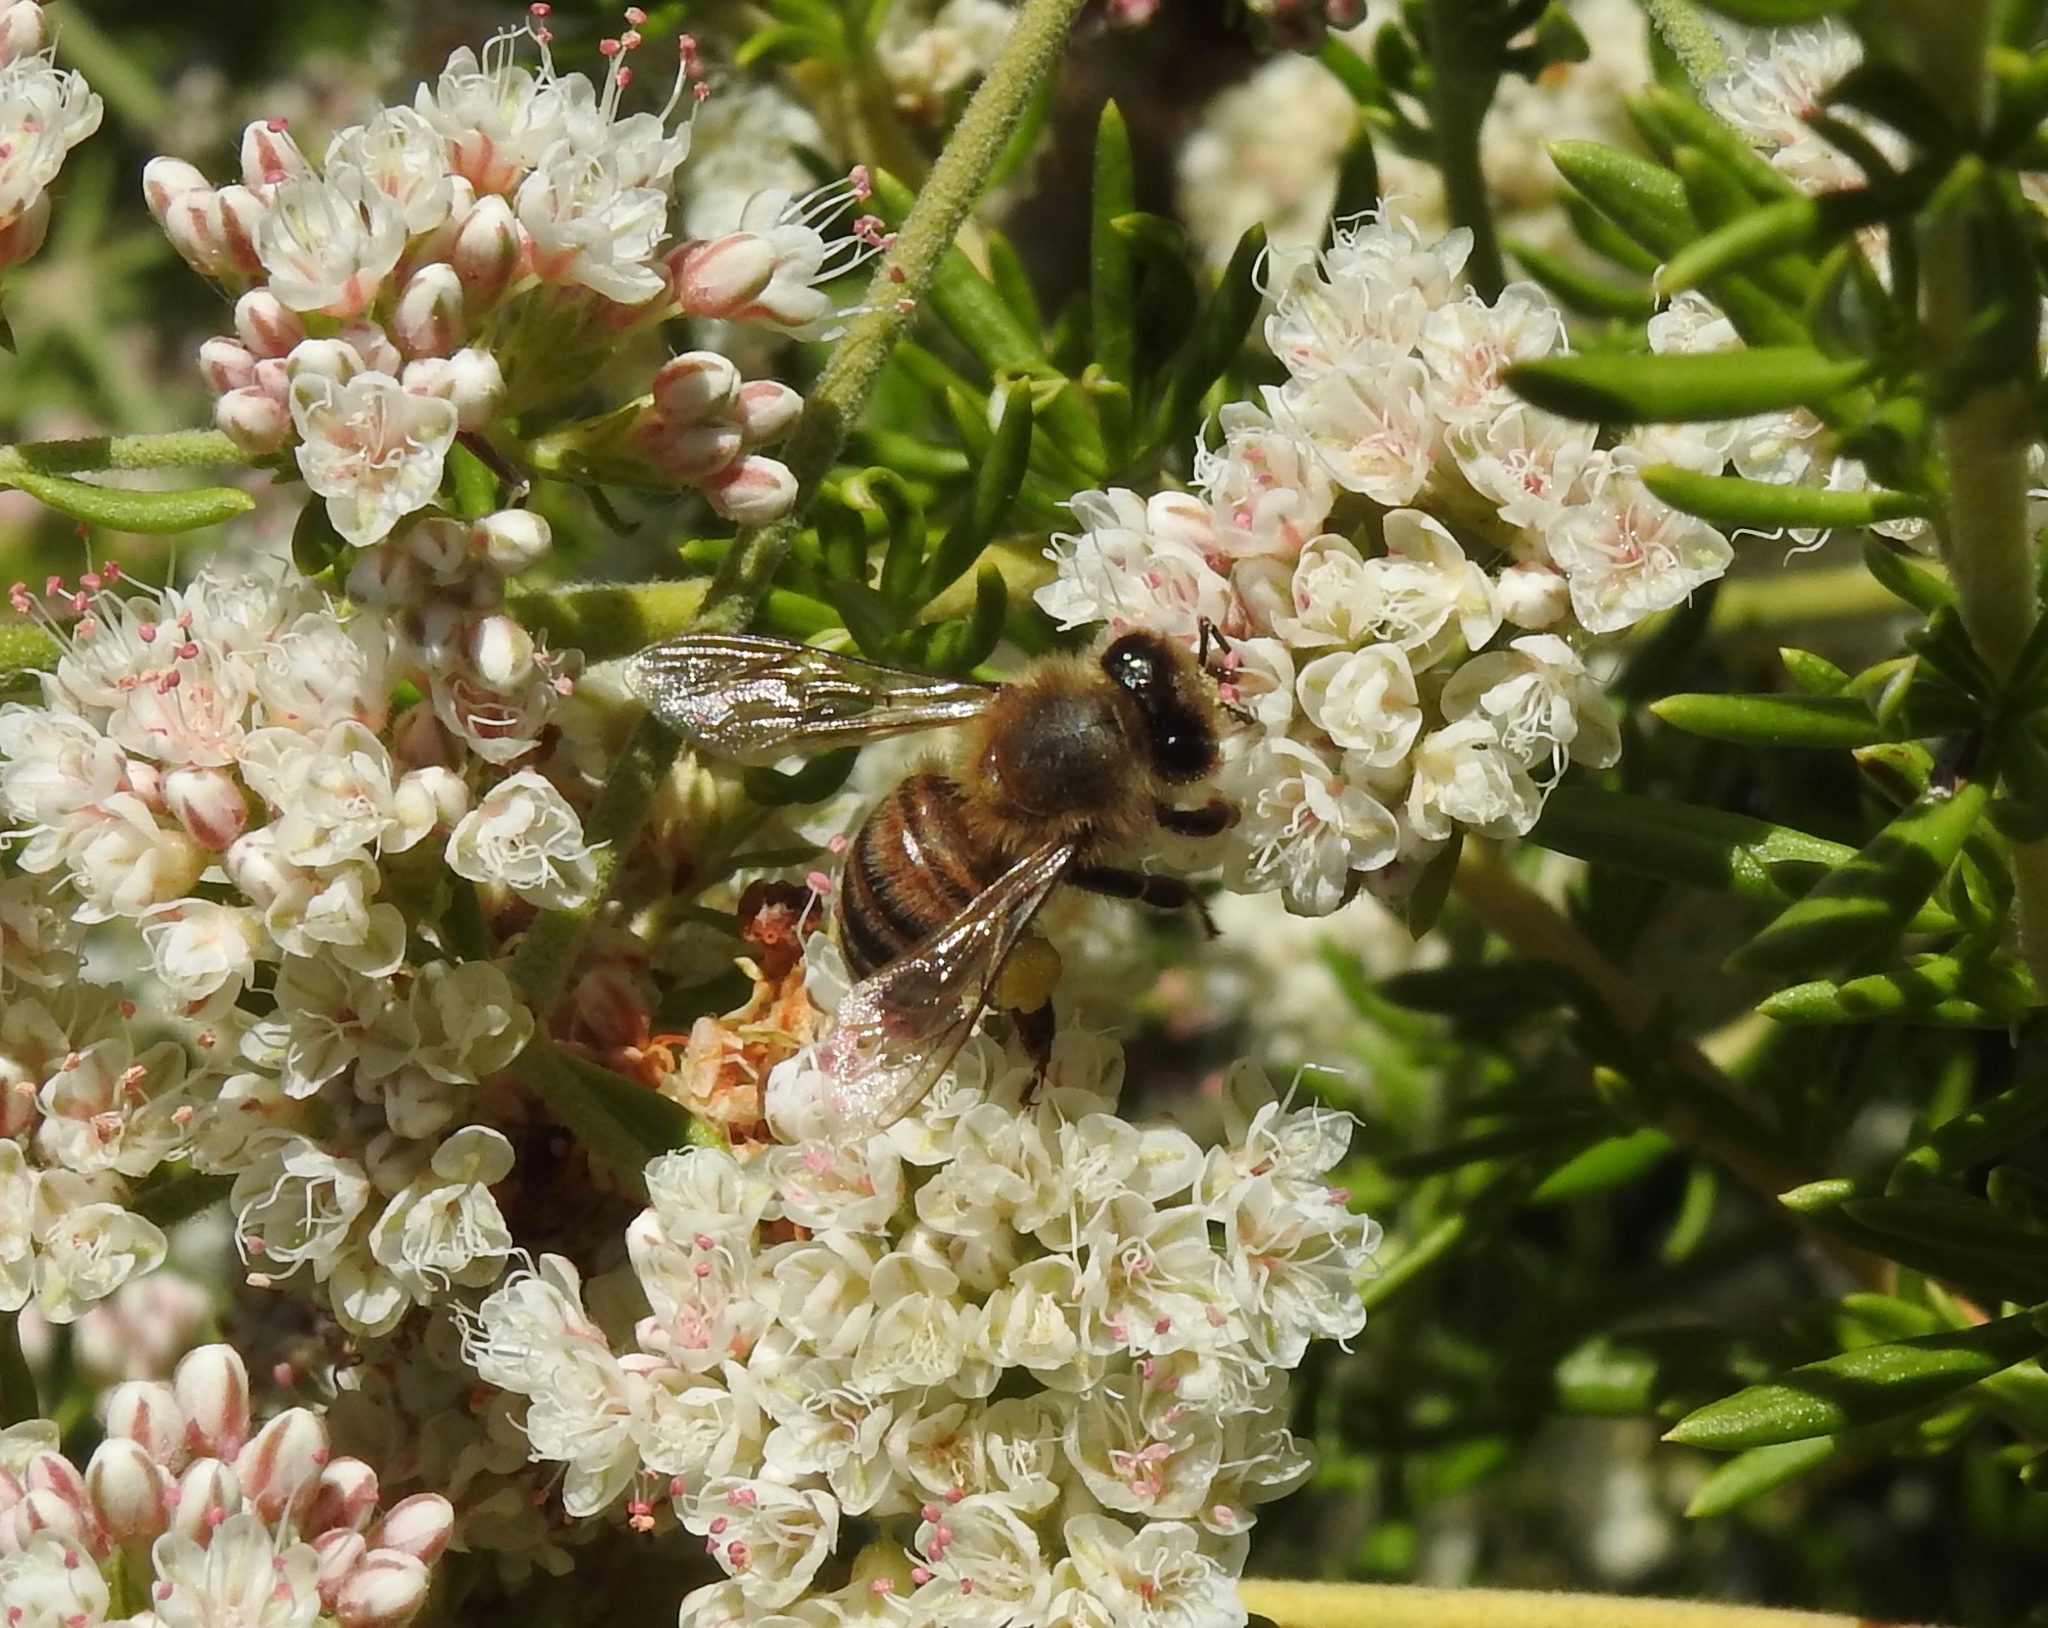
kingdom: Animalia
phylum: Arthropoda
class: Insecta
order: Hymenoptera
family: Apidae
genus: Apis
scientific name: Apis mellifera
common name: Honey bee
